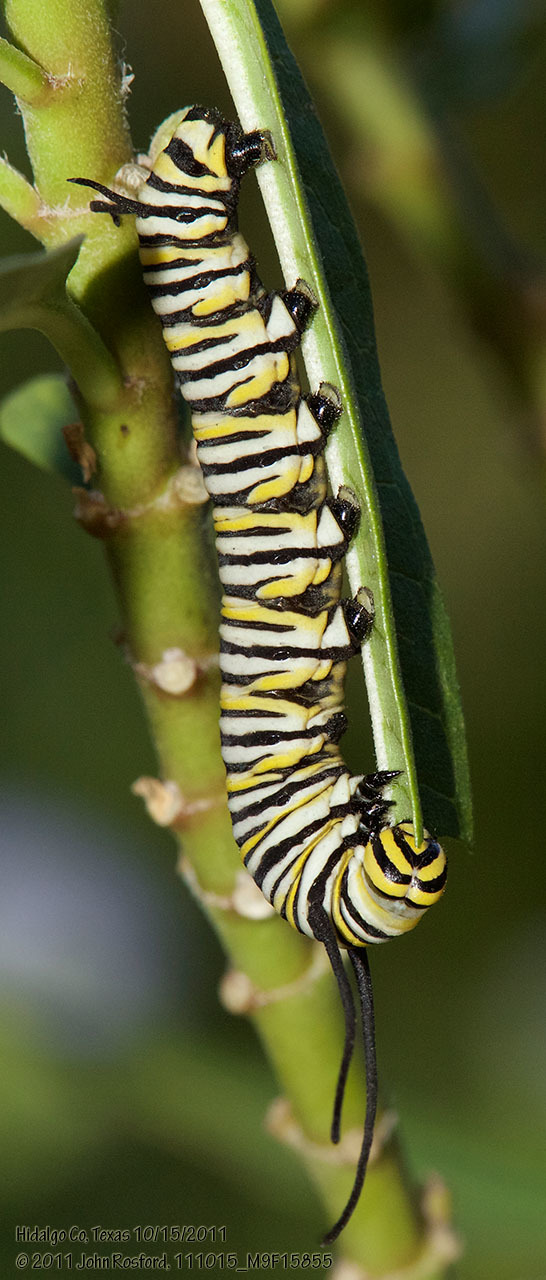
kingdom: Animalia
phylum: Arthropoda
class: Insecta
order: Lepidoptera
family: Nymphalidae
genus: Danaus
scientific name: Danaus plexippus
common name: Monarch
